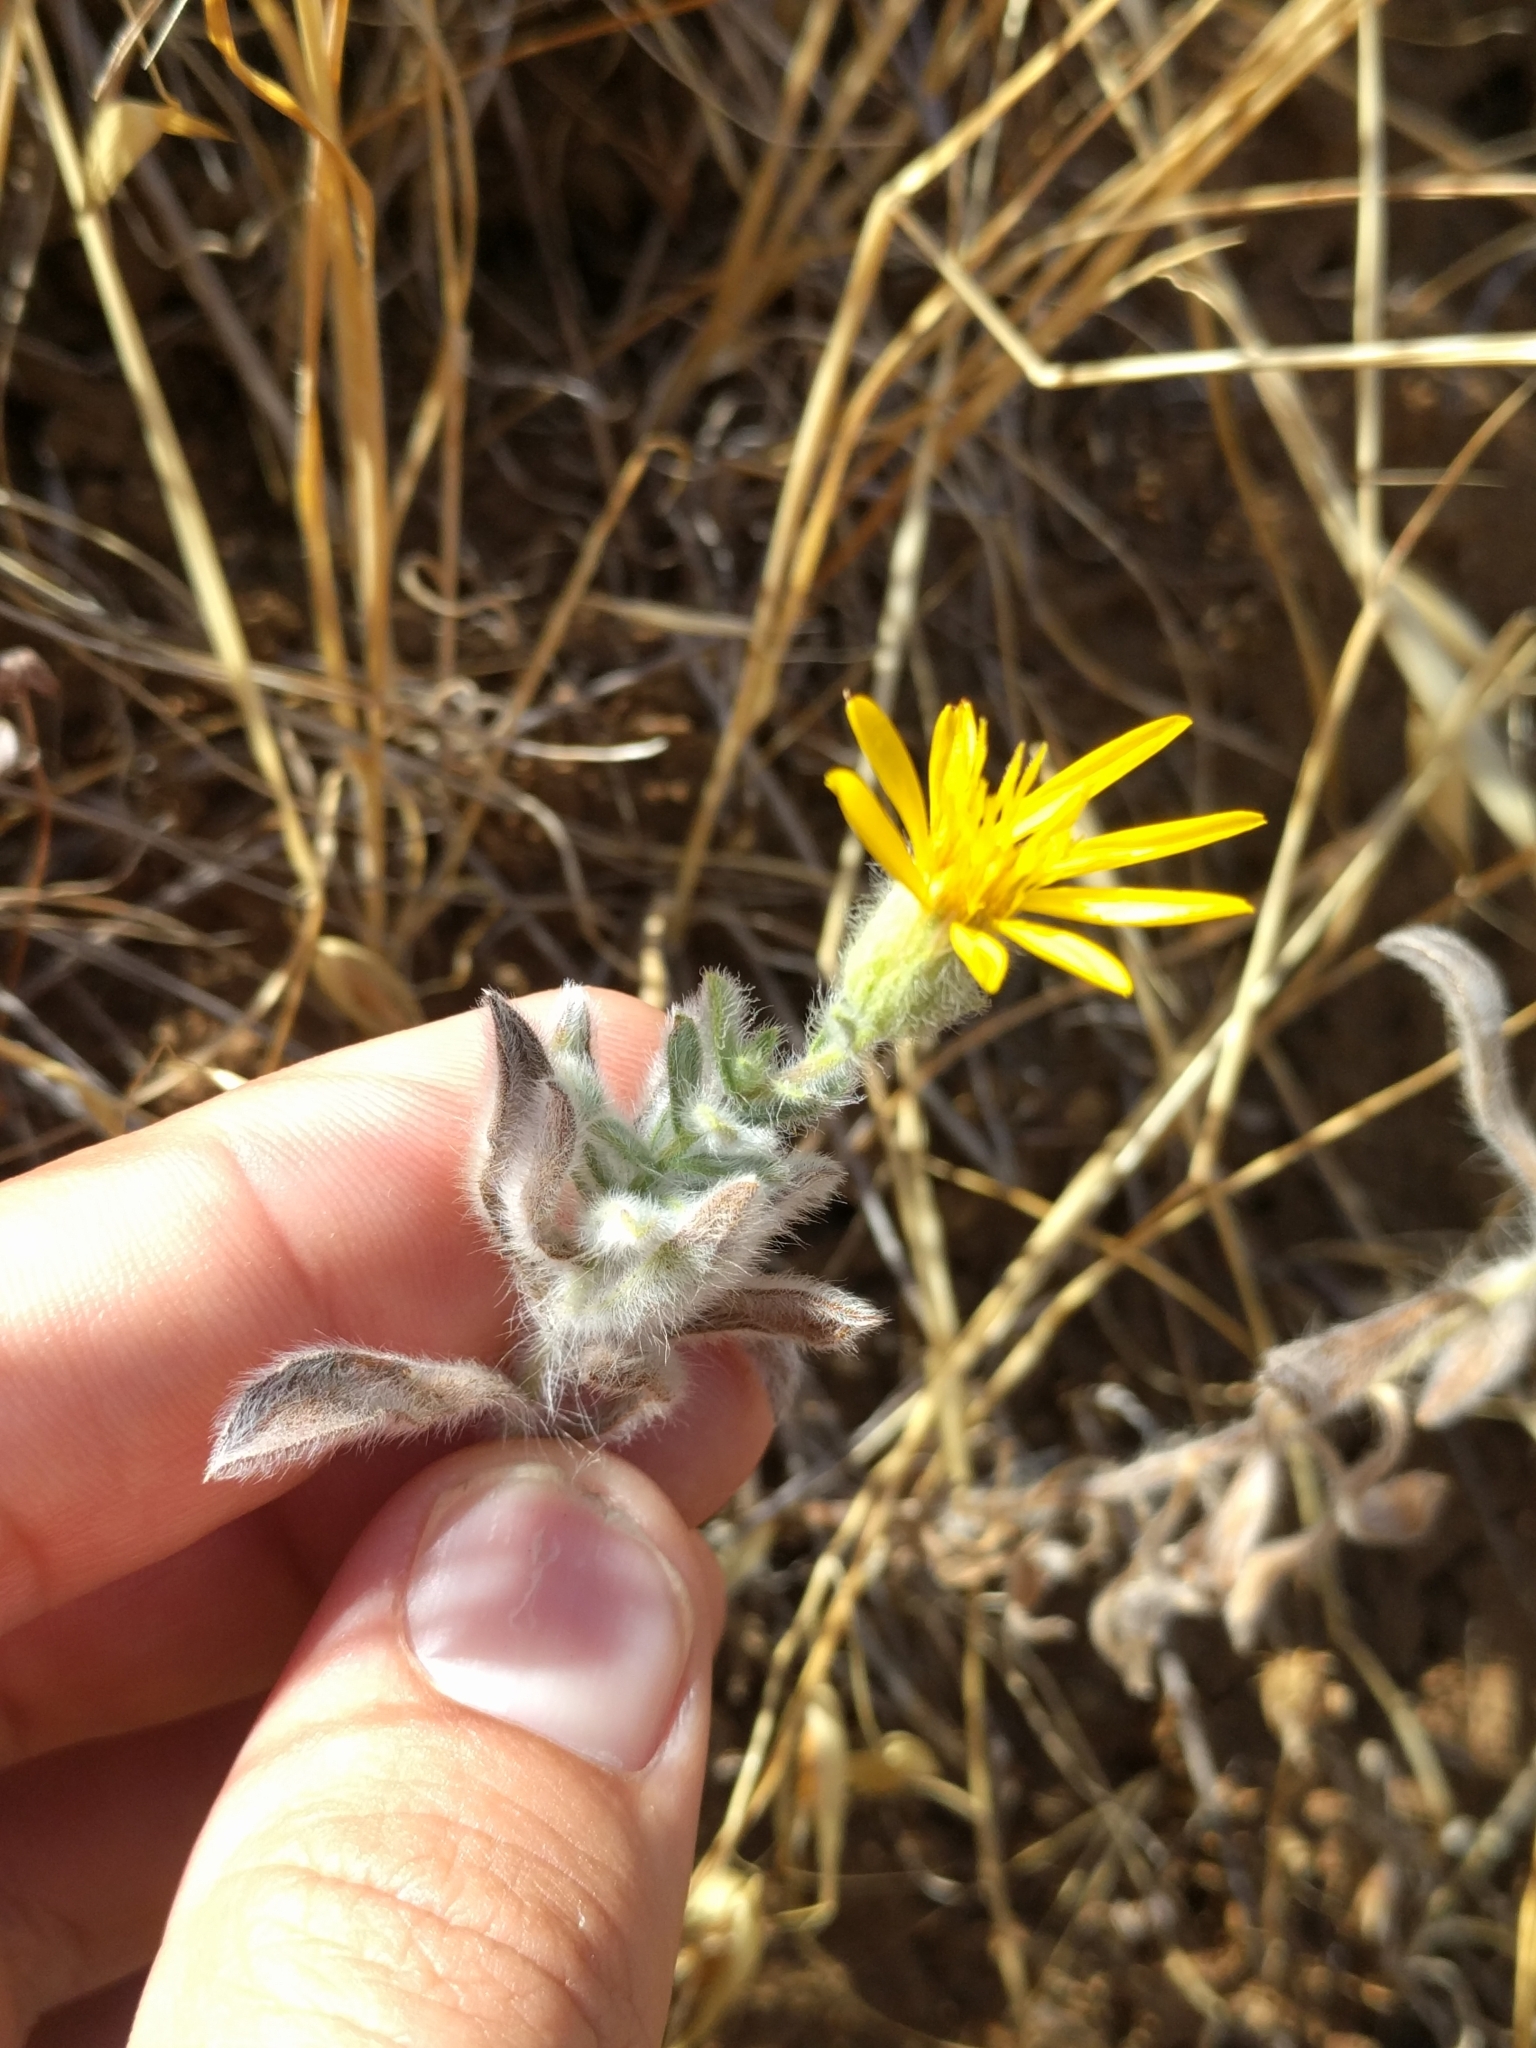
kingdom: Plantae
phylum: Tracheophyta
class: Magnoliopsida
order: Asterales
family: Asteraceae
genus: Heterotheca
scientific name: Heterotheca sessiliflora
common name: Sessile-flower golden-aster
